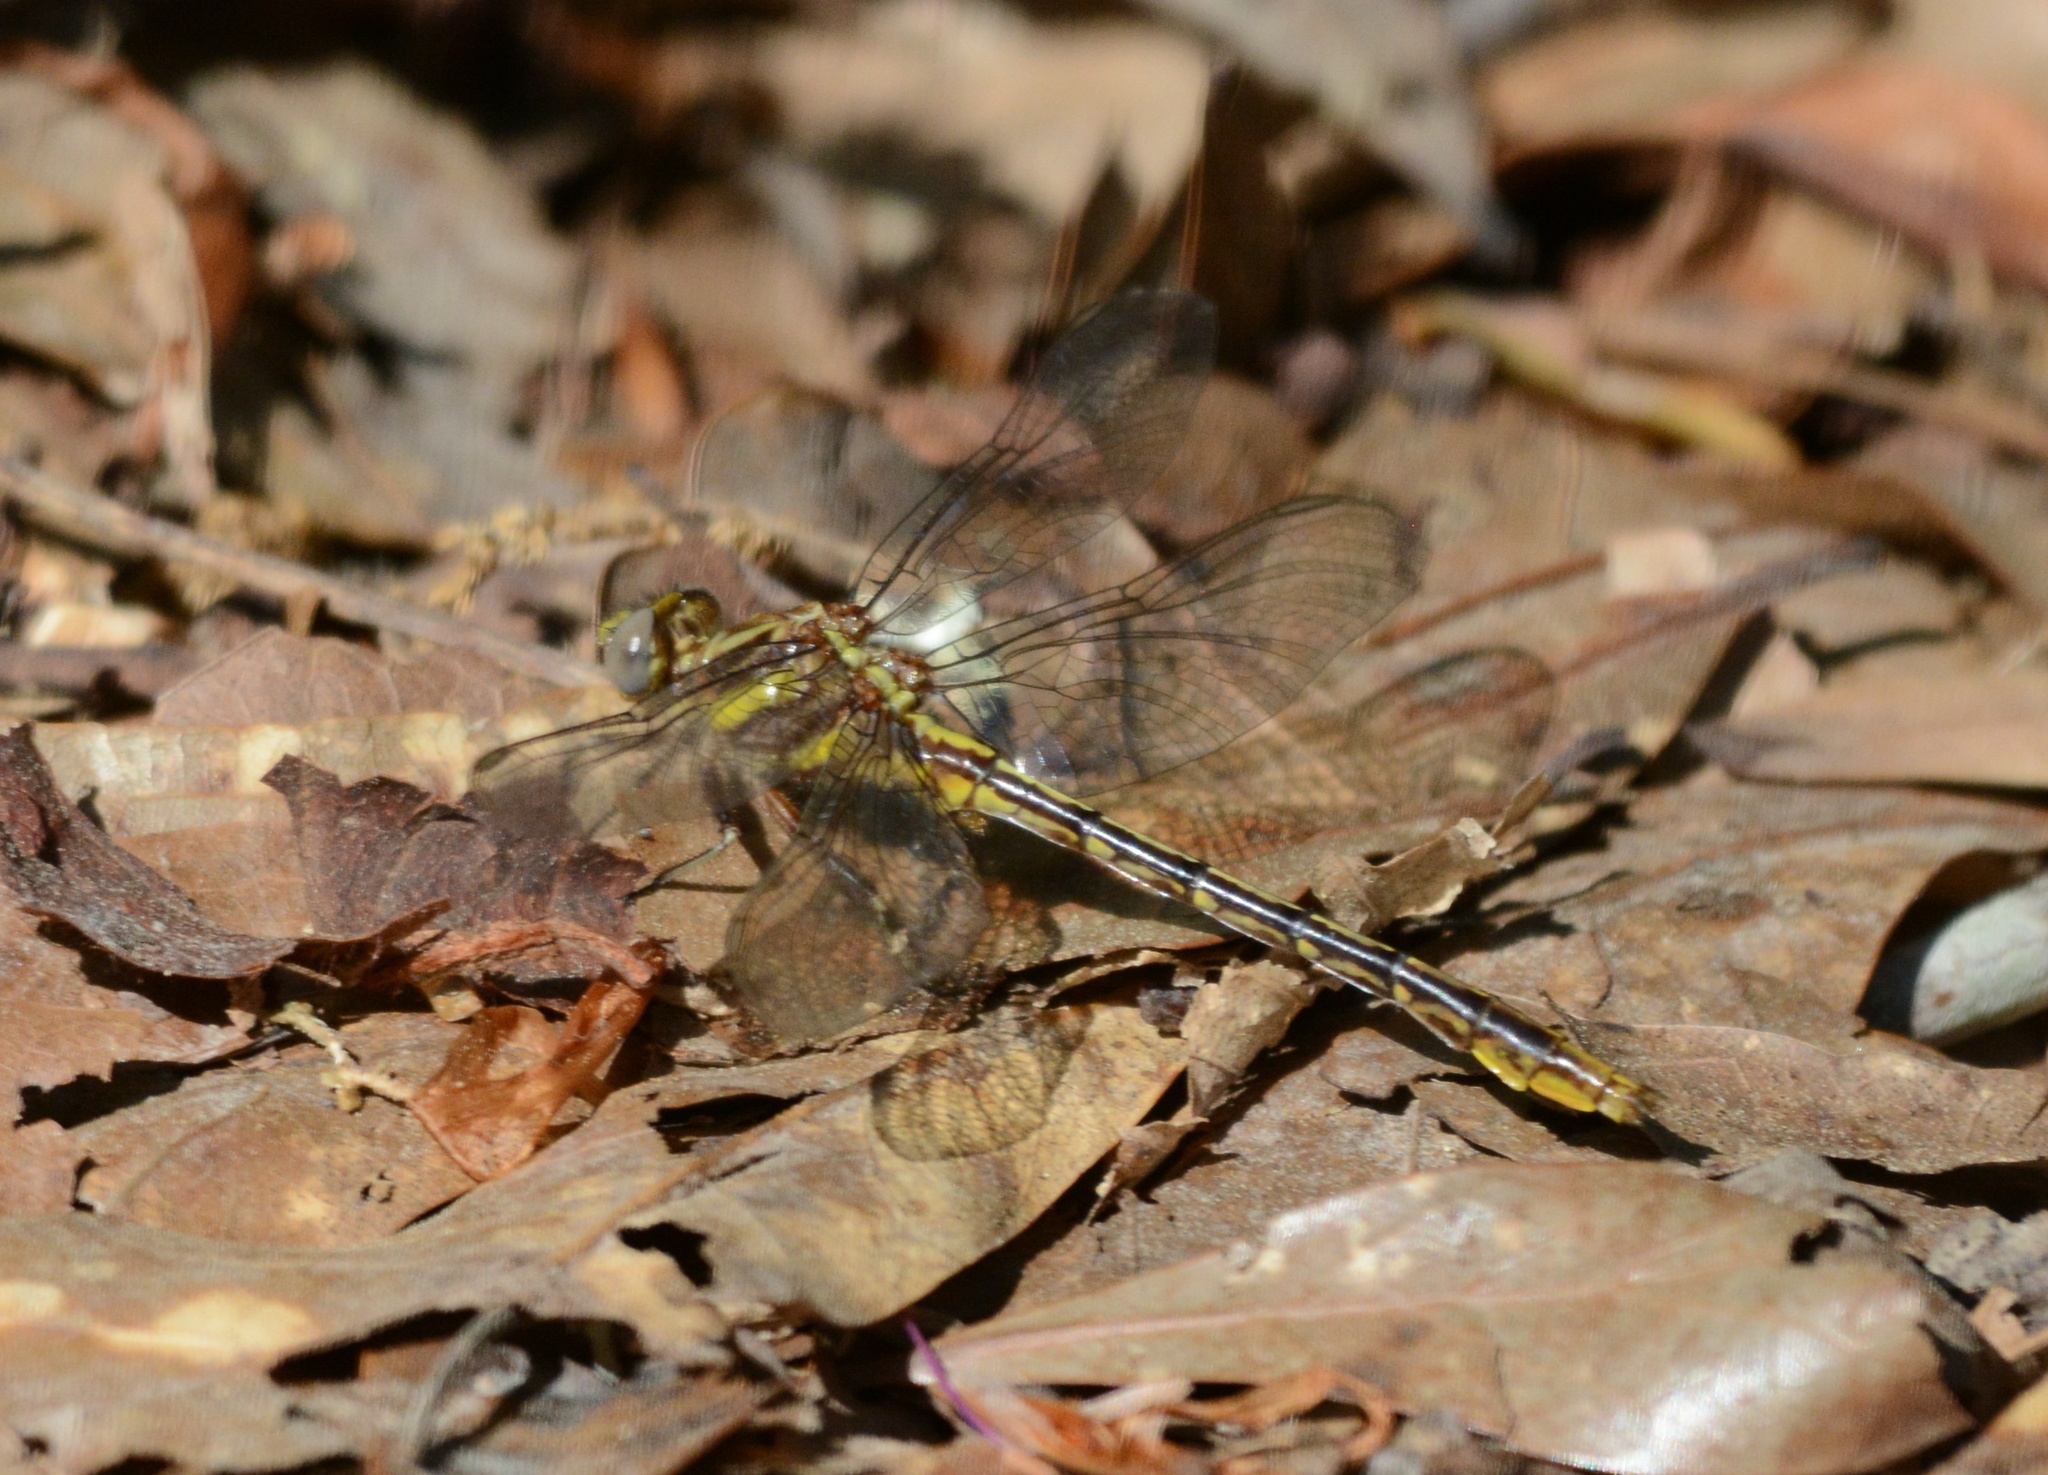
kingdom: Animalia
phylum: Arthropoda
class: Insecta
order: Odonata
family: Gomphidae
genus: Phanogomphus
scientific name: Phanogomphus exilis
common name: Lancet clubtail
